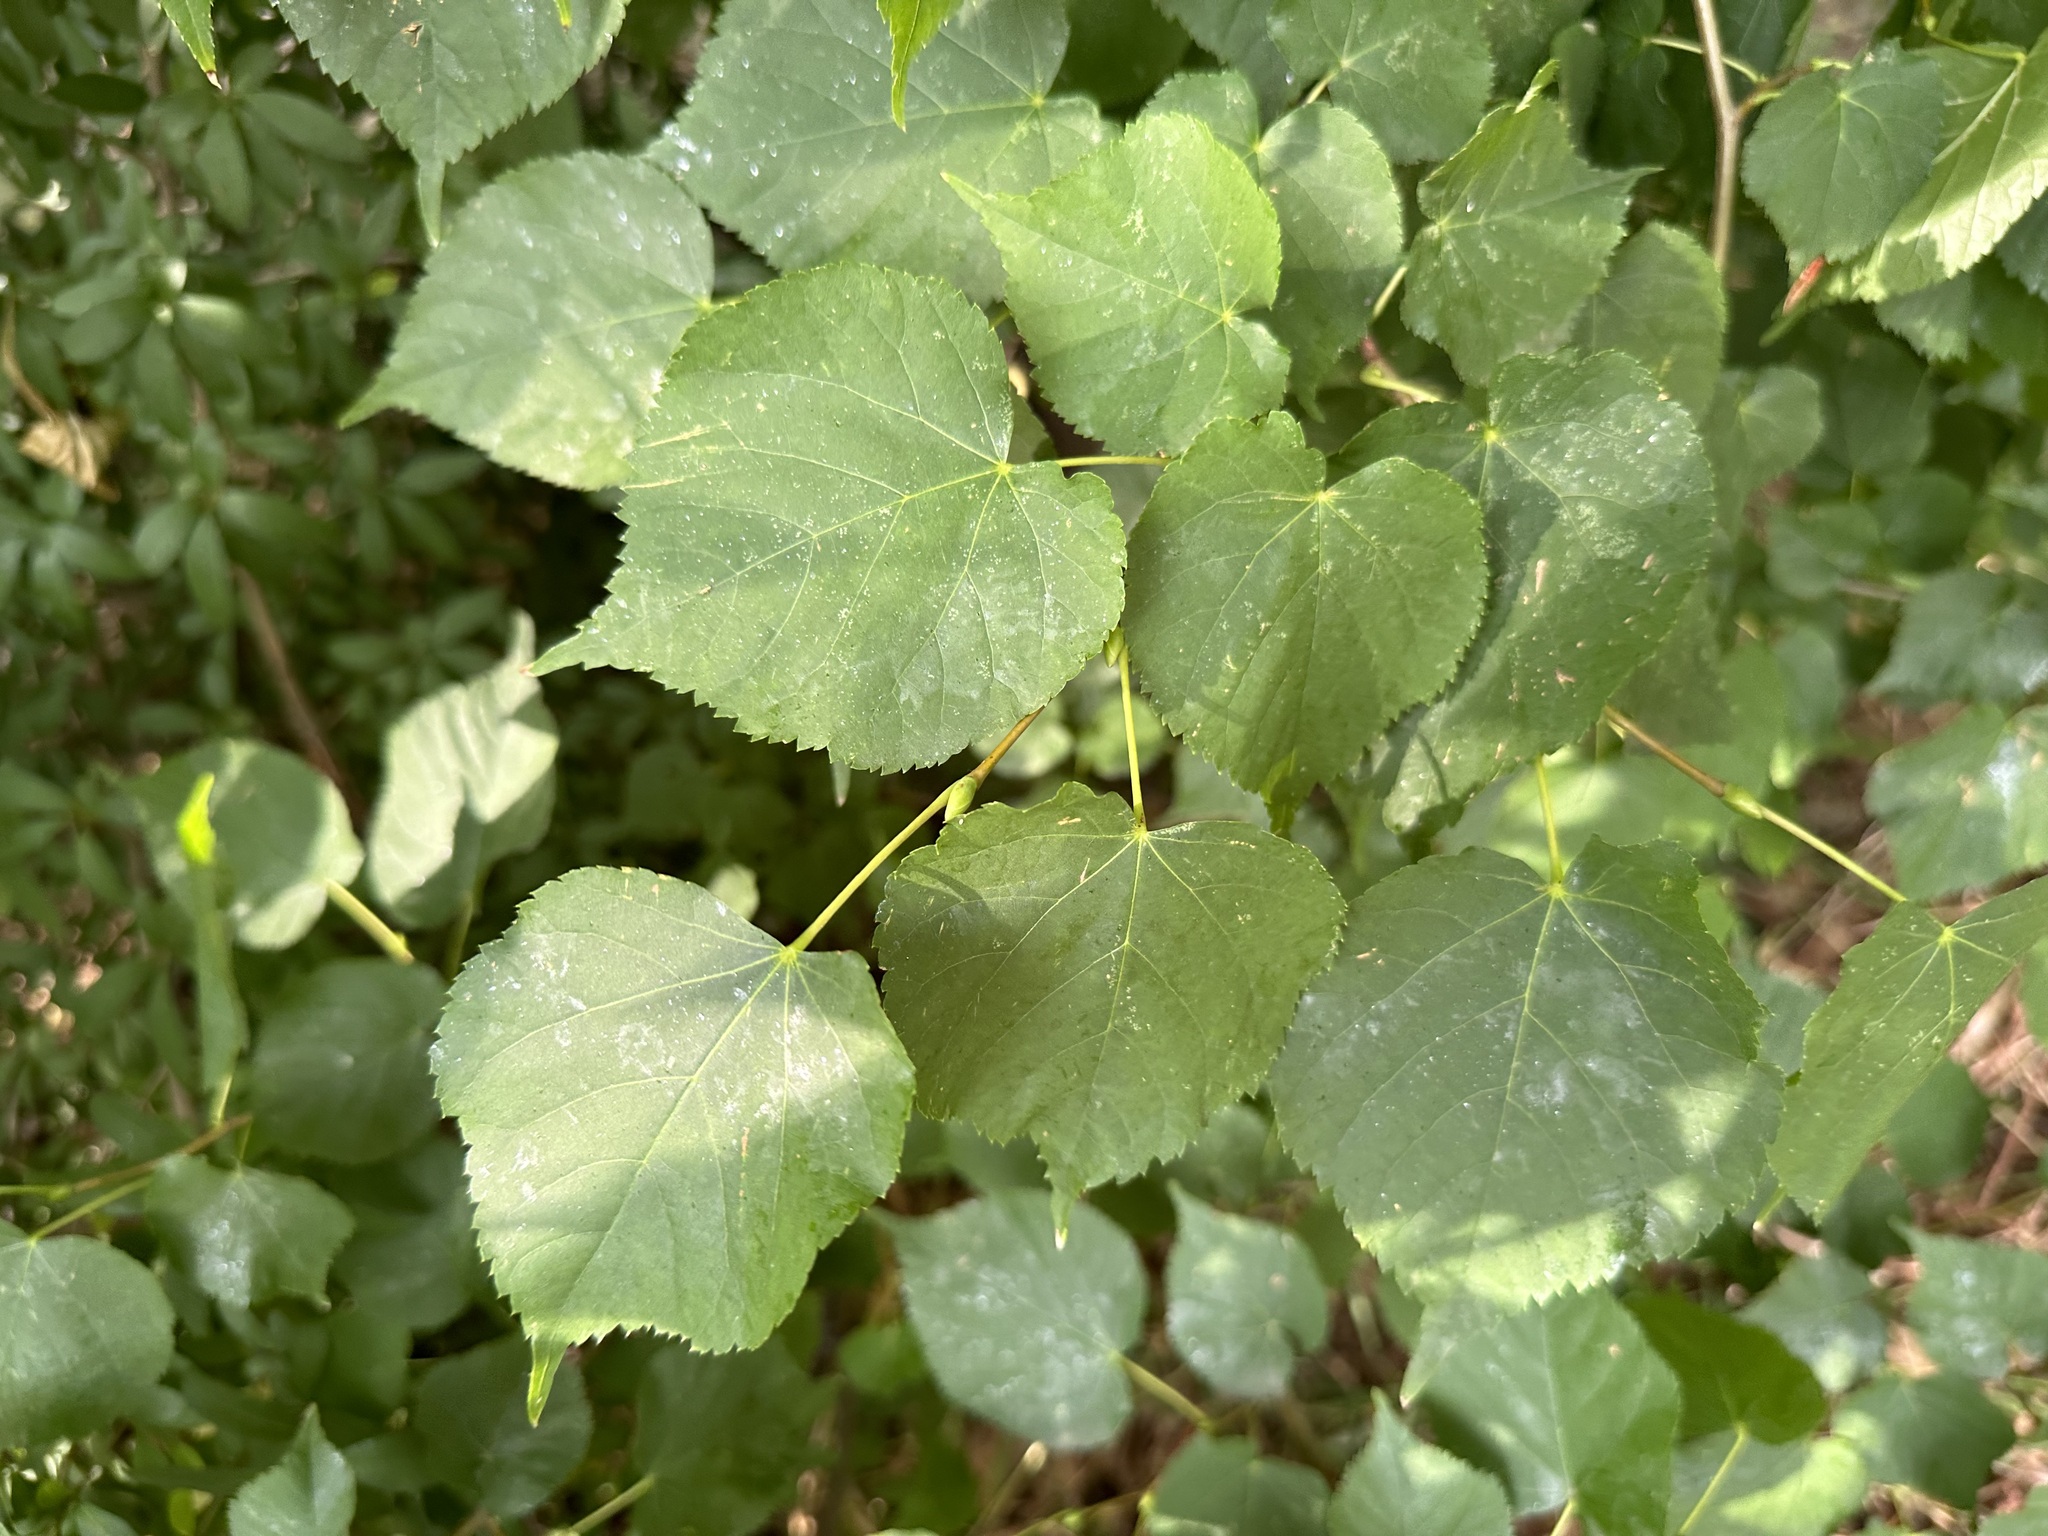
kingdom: Plantae
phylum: Tracheophyta
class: Magnoliopsida
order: Malvales
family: Malvaceae
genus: Tilia
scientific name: Tilia cordata
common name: Small-leaved lime
